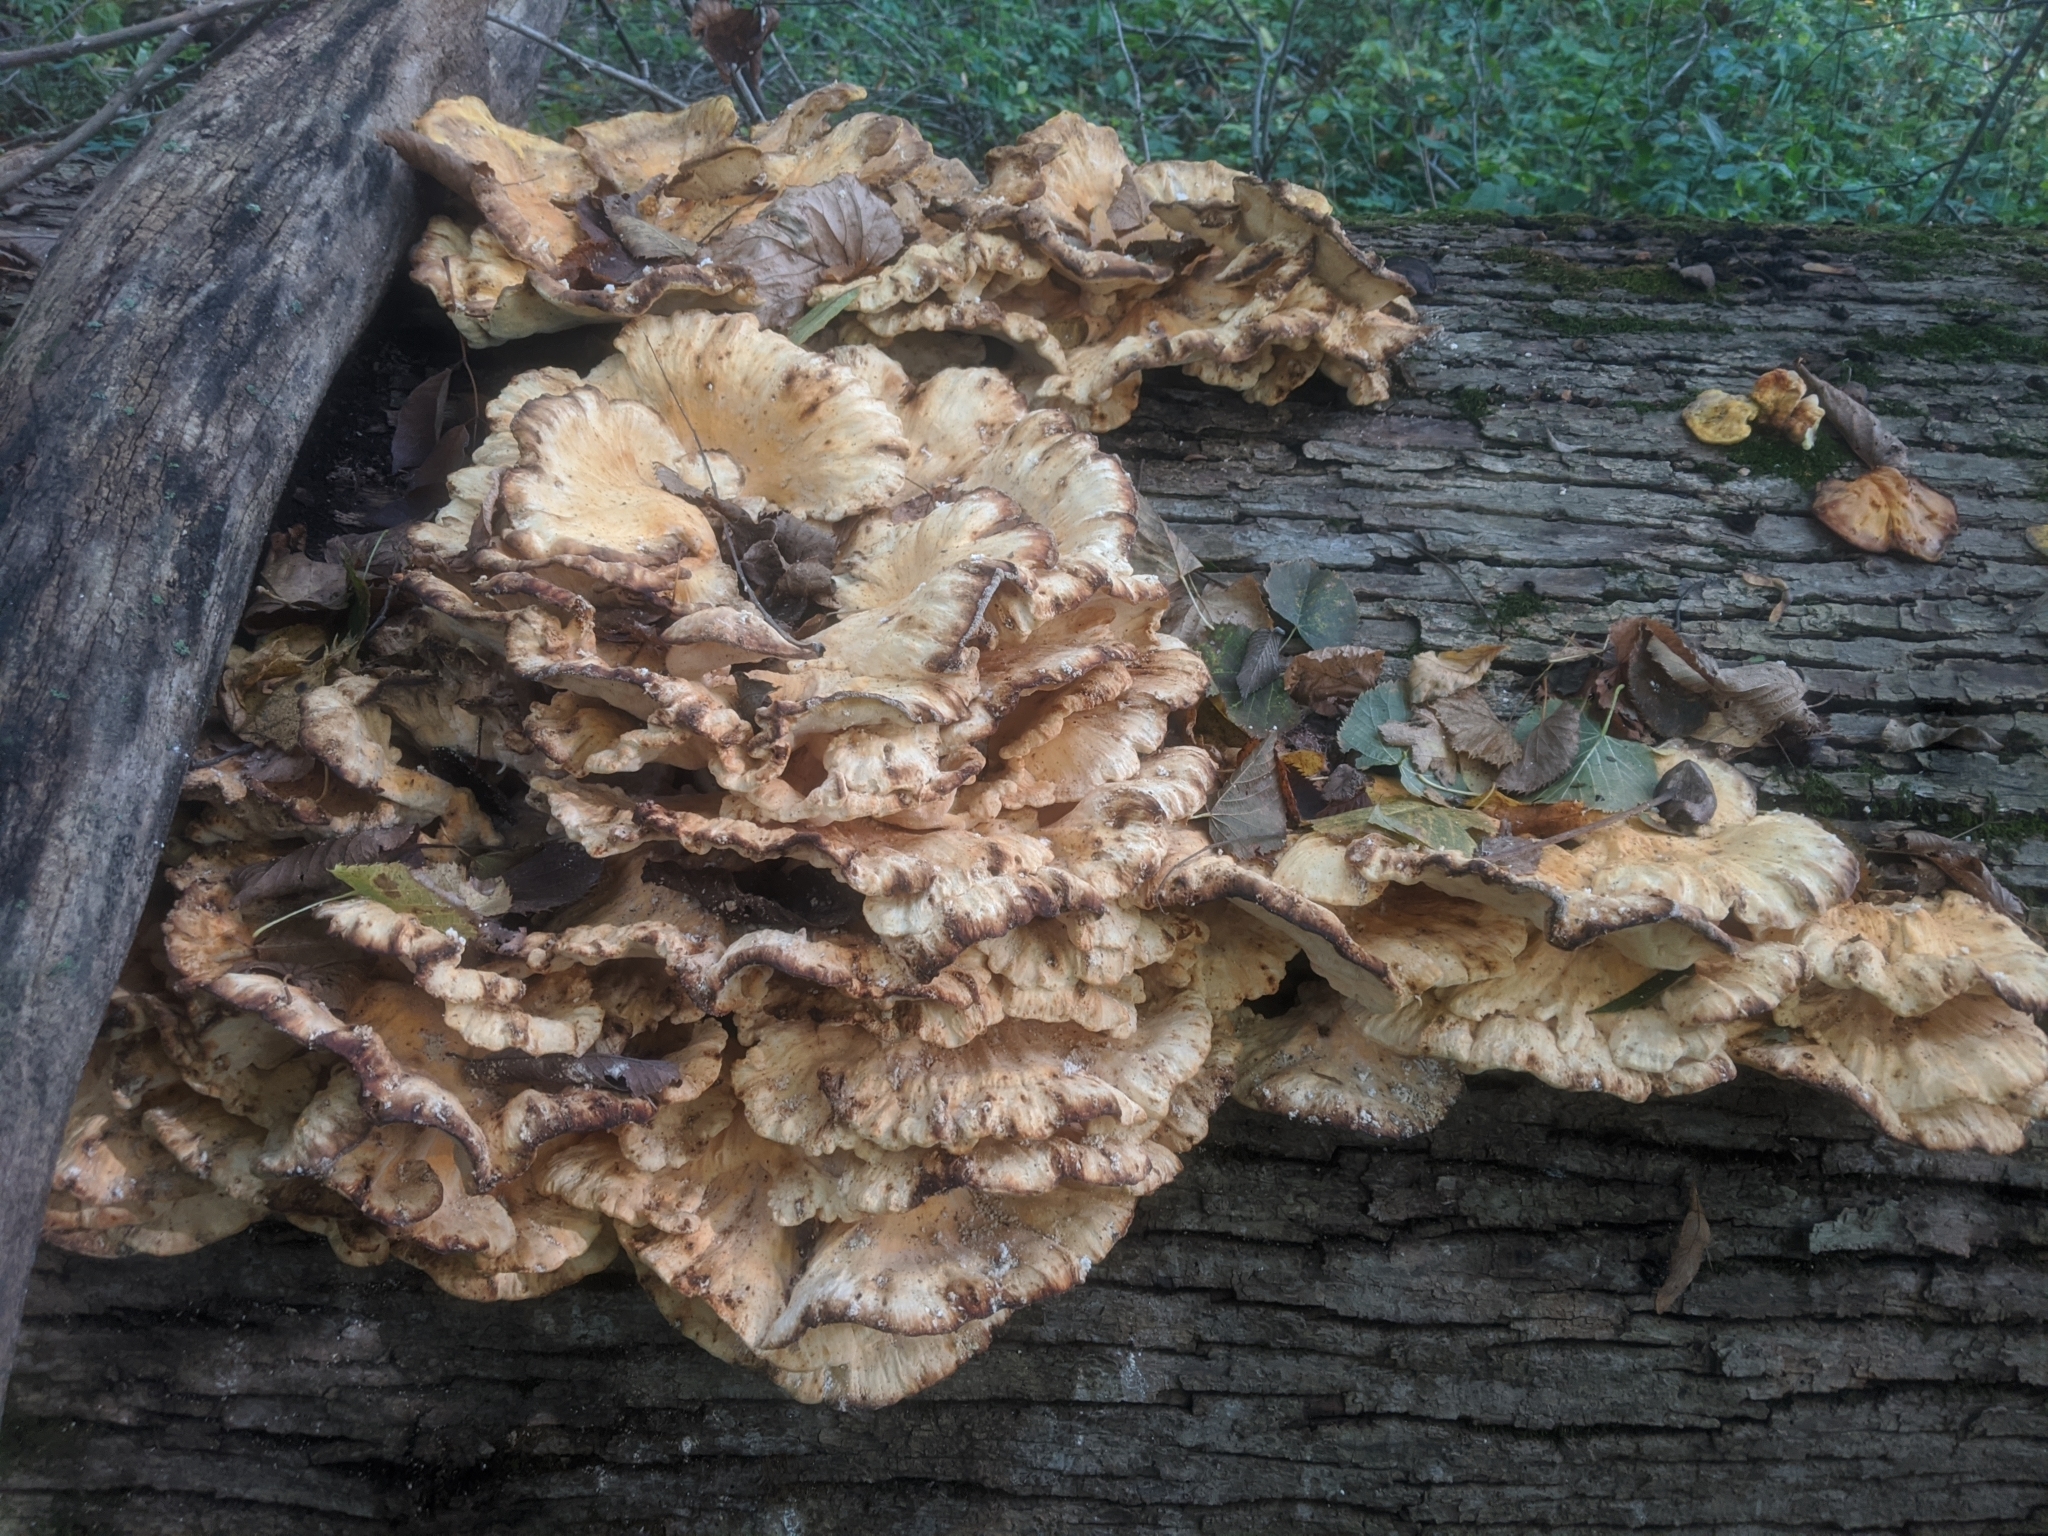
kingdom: Fungi
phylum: Basidiomycota
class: Agaricomycetes
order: Polyporales
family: Laetiporaceae
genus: Laetiporus
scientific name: Laetiporus sulphureus
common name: Chicken of the woods
